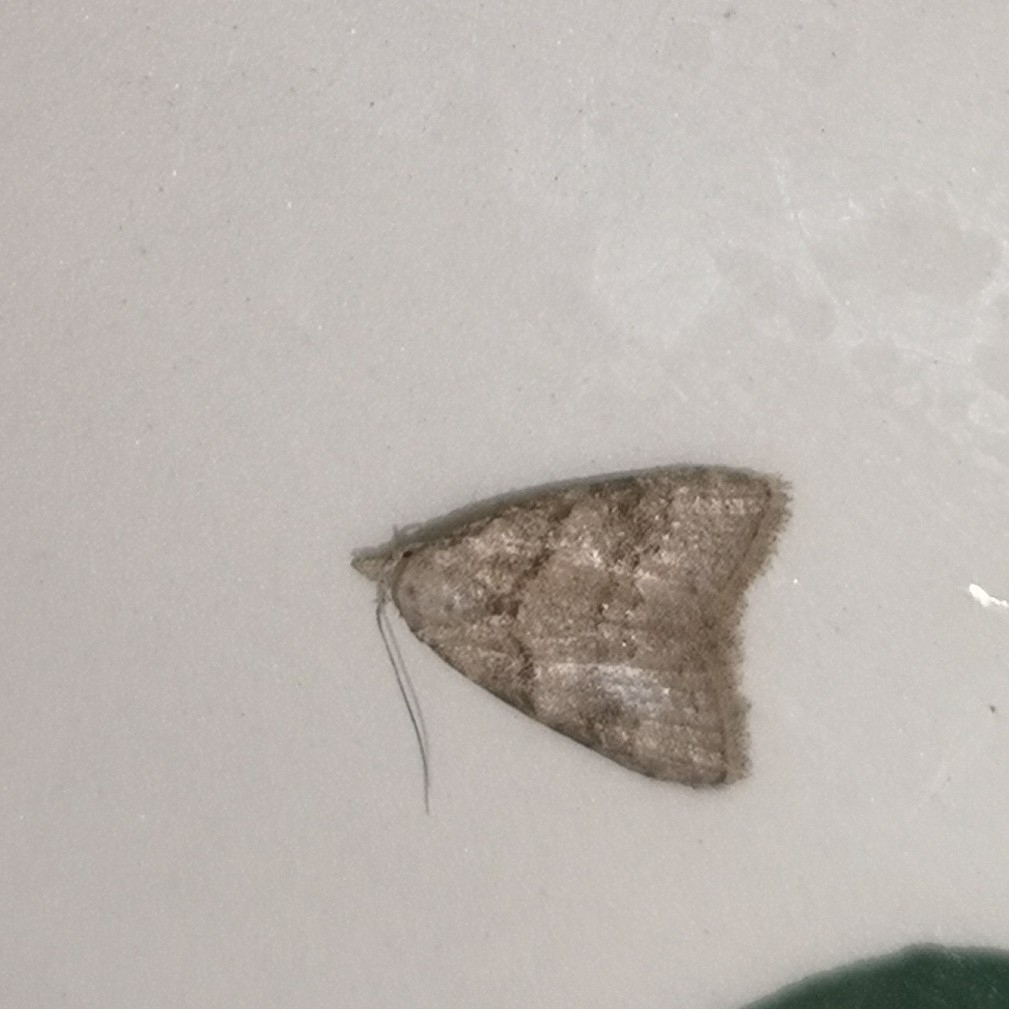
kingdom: Animalia
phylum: Arthropoda
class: Insecta
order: Lepidoptera
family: Nolidae
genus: Nola
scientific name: Nola harouni
